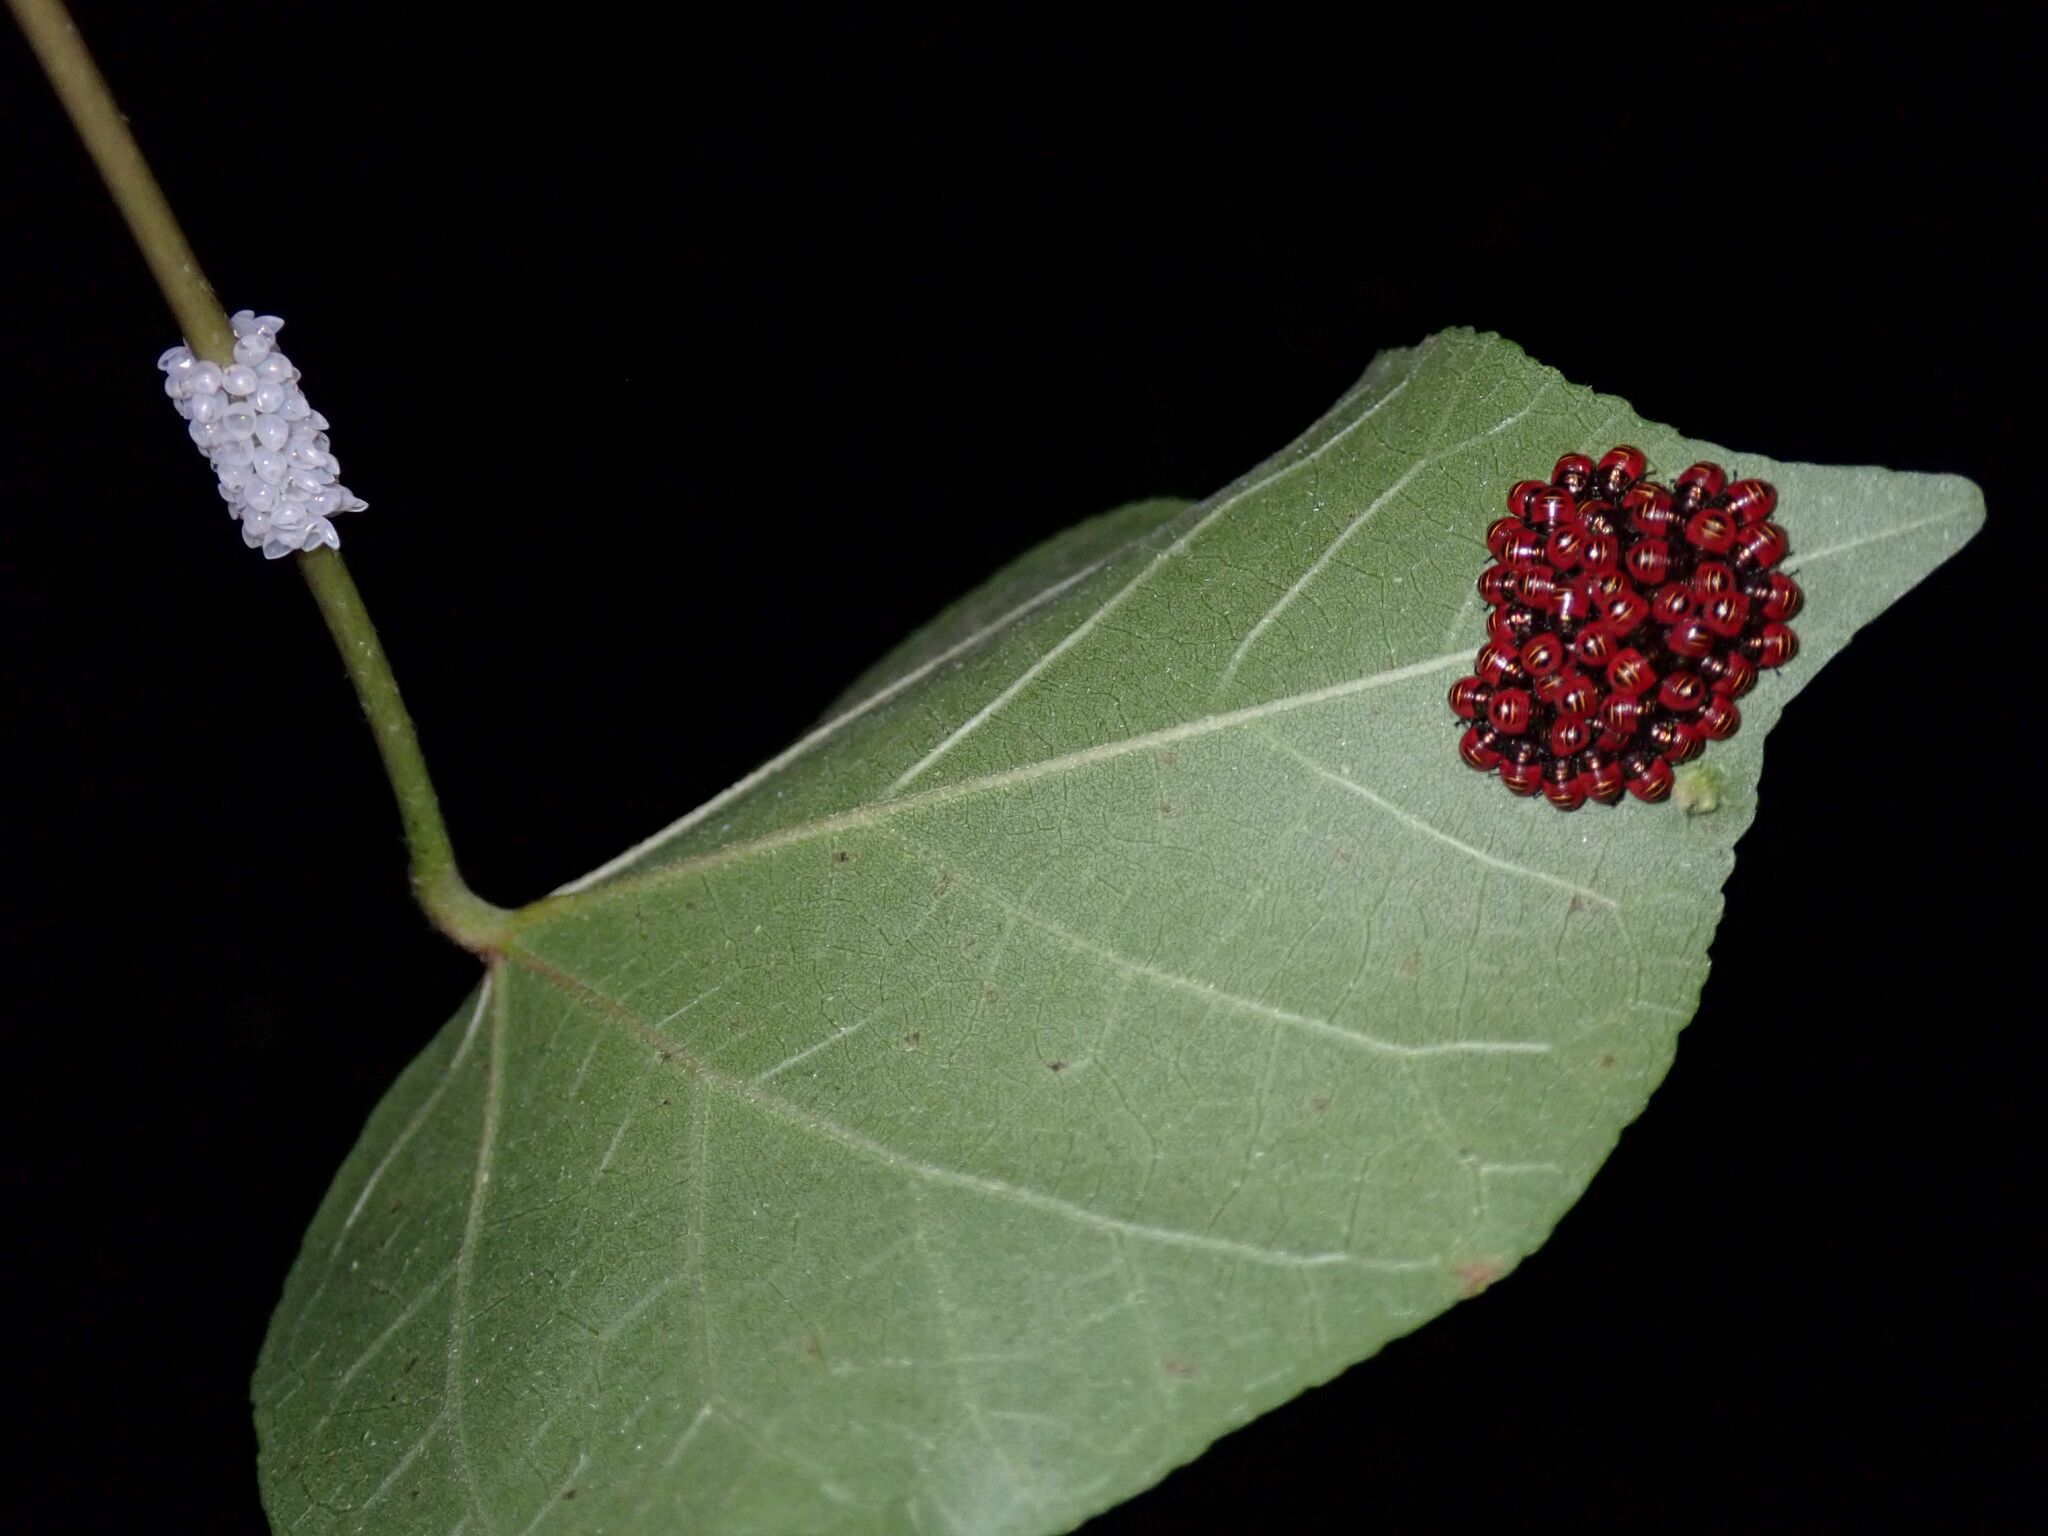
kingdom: Animalia
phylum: Arthropoda
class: Insecta
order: Hemiptera
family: Scutelleridae
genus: Tectocoris
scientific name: Tectocoris diophthalmus
